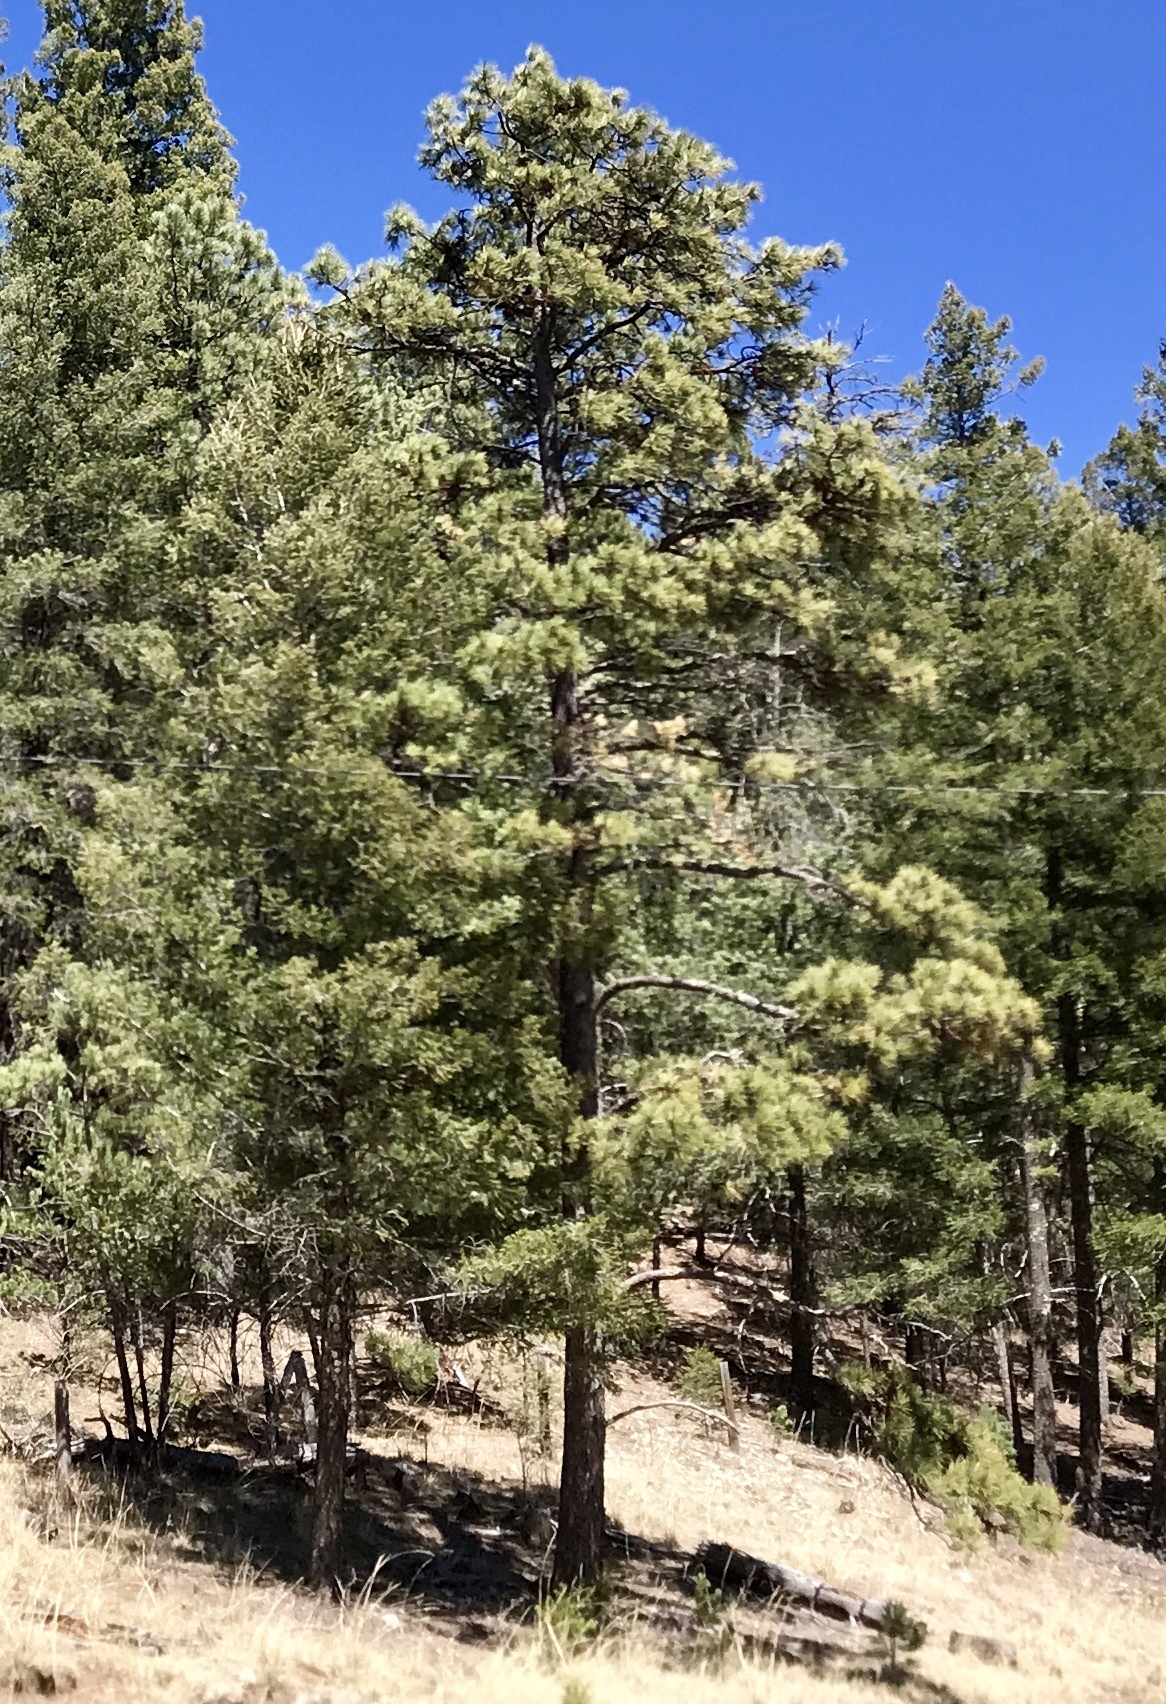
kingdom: Plantae
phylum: Tracheophyta
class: Pinopsida
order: Pinales
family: Pinaceae
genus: Pinus
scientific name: Pinus ponderosa
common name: Western yellow-pine
